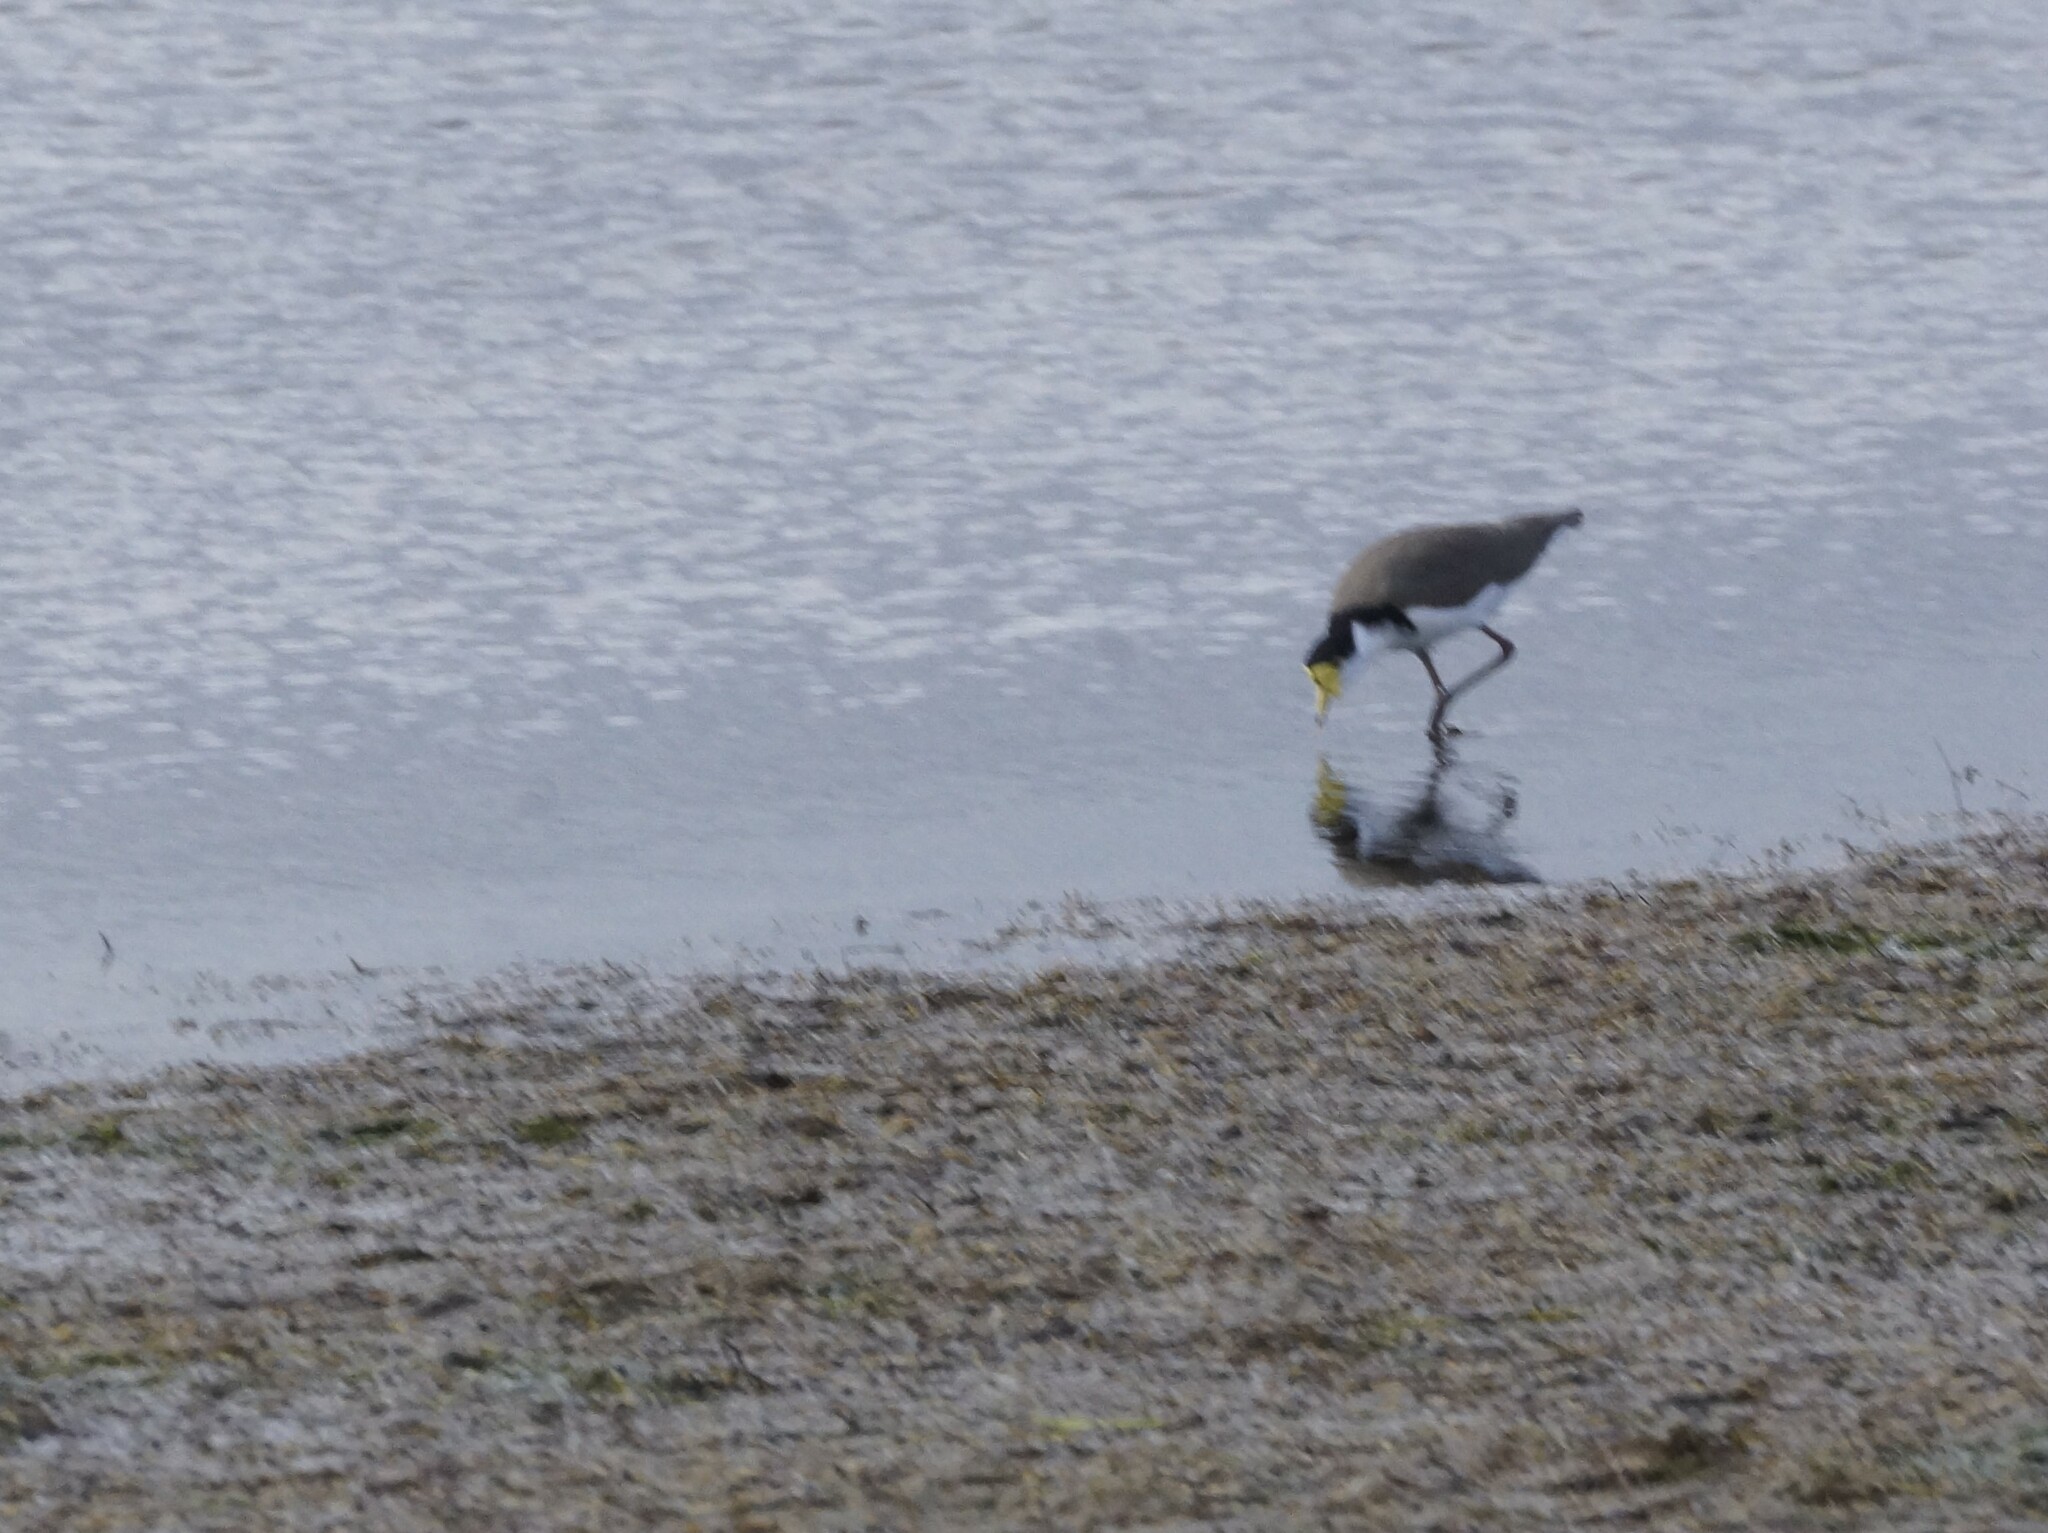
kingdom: Animalia
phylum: Chordata
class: Aves
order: Charadriiformes
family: Charadriidae
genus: Vanellus
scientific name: Vanellus miles
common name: Masked lapwing
